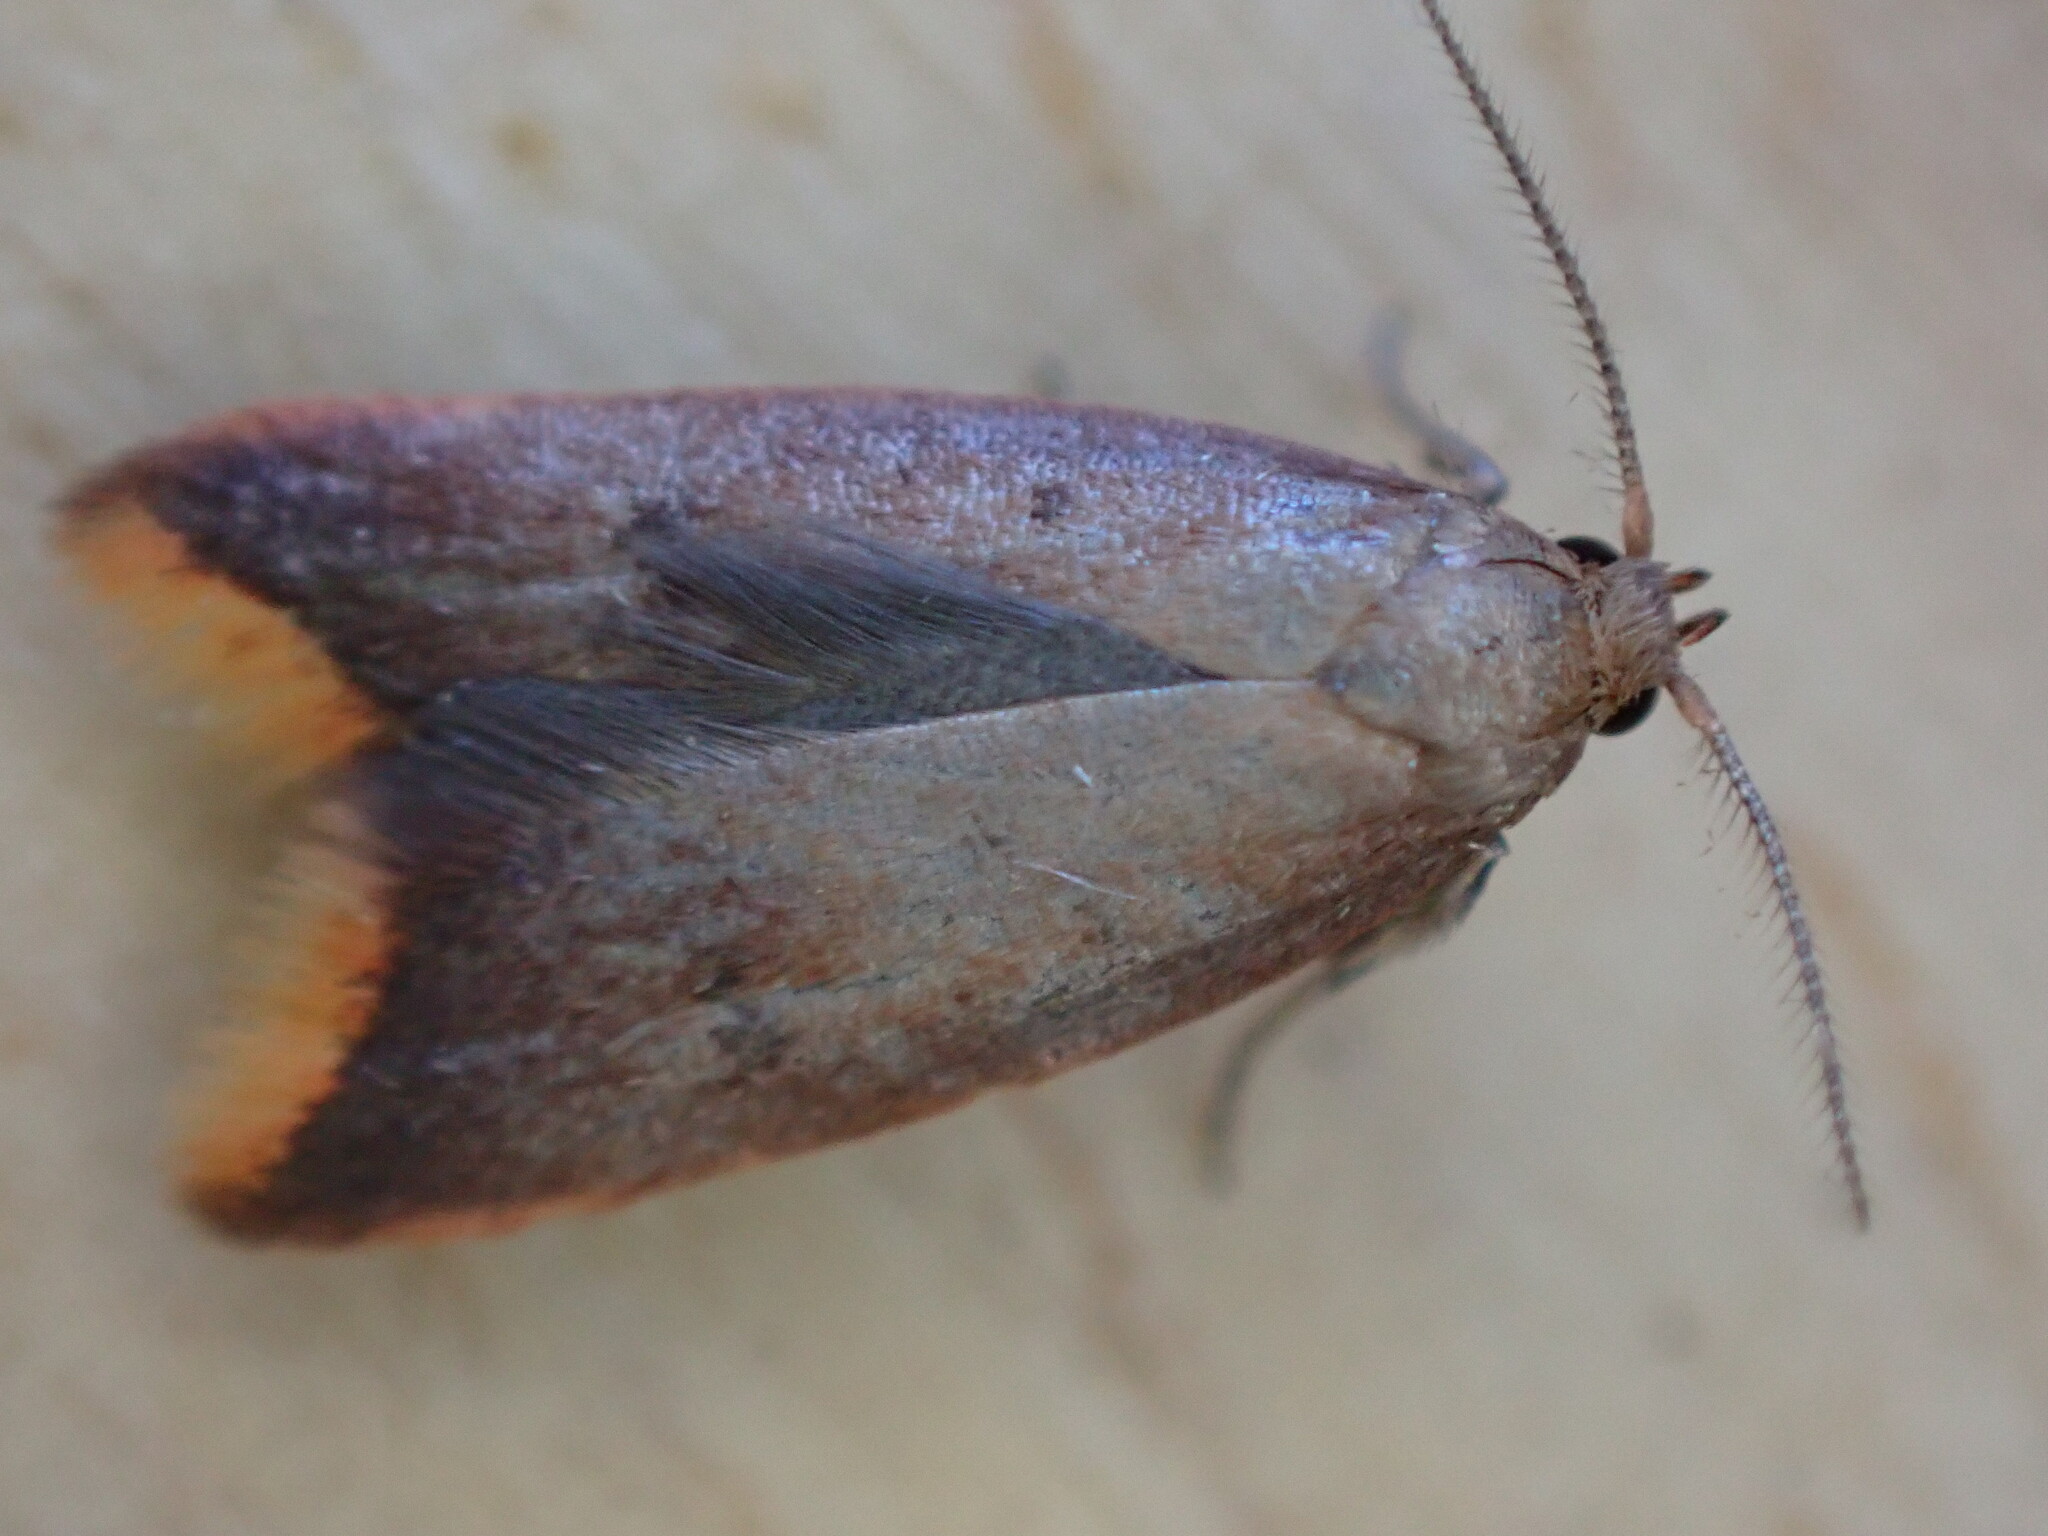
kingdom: Animalia
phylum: Arthropoda
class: Insecta
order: Lepidoptera
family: Oecophoridae
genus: Tachystola
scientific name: Tachystola acroxantha
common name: Ruddy streak
